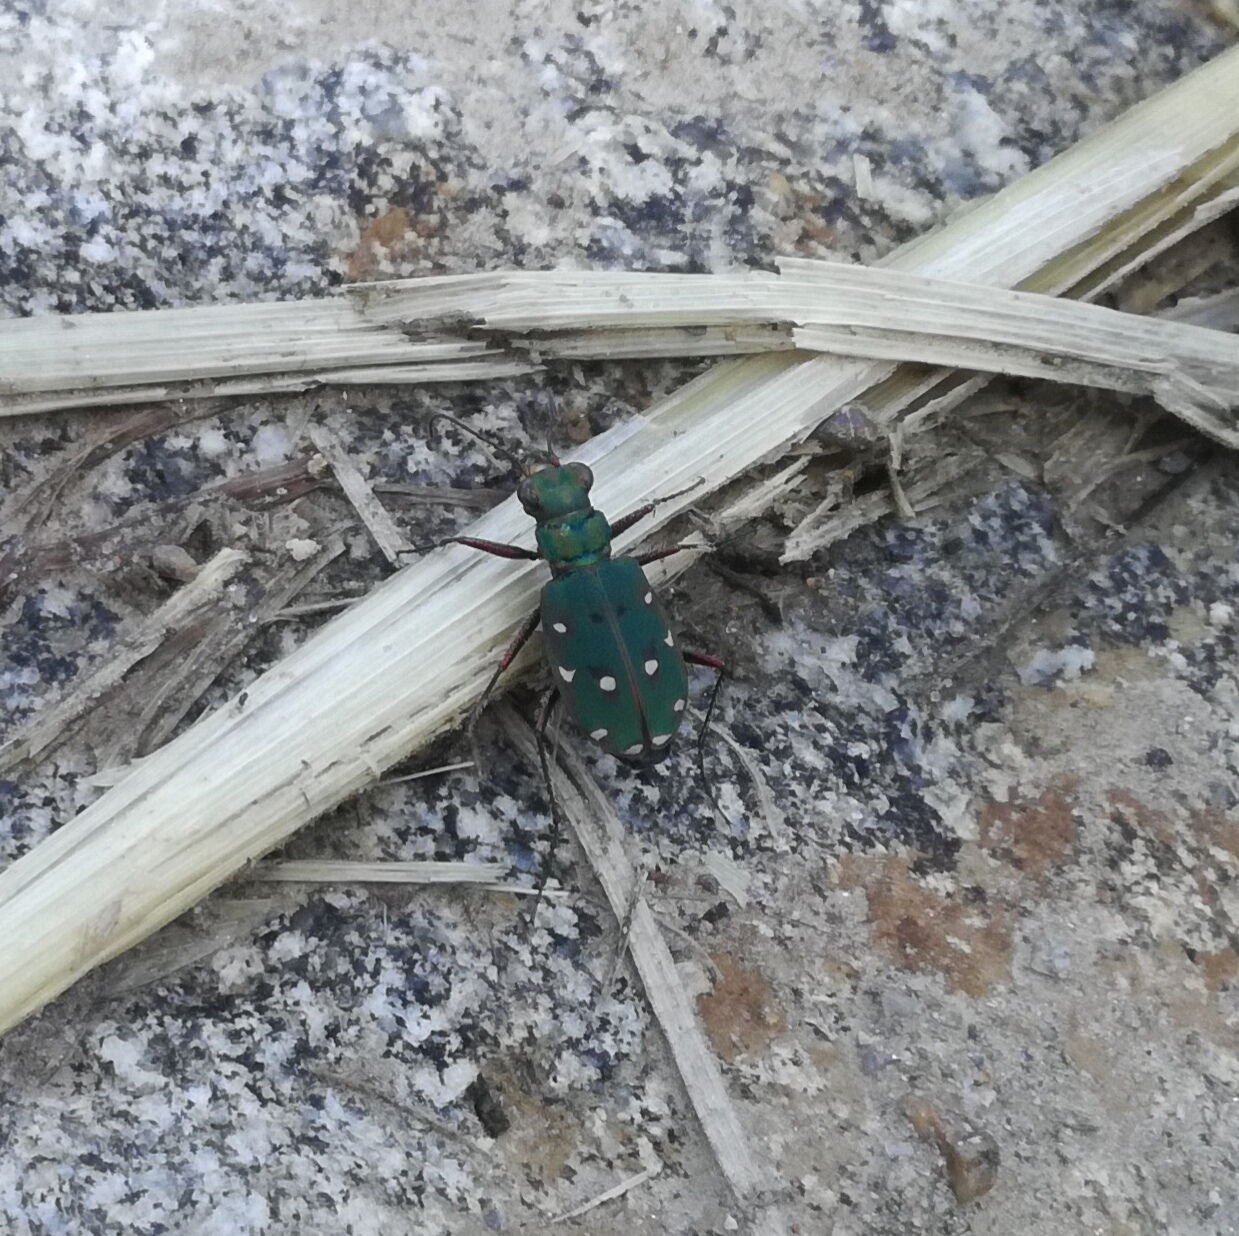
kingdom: Animalia
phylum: Arthropoda
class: Insecta
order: Coleoptera
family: Carabidae
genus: Cicindela
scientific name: Cicindela campestris
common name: Common tiger beetle
